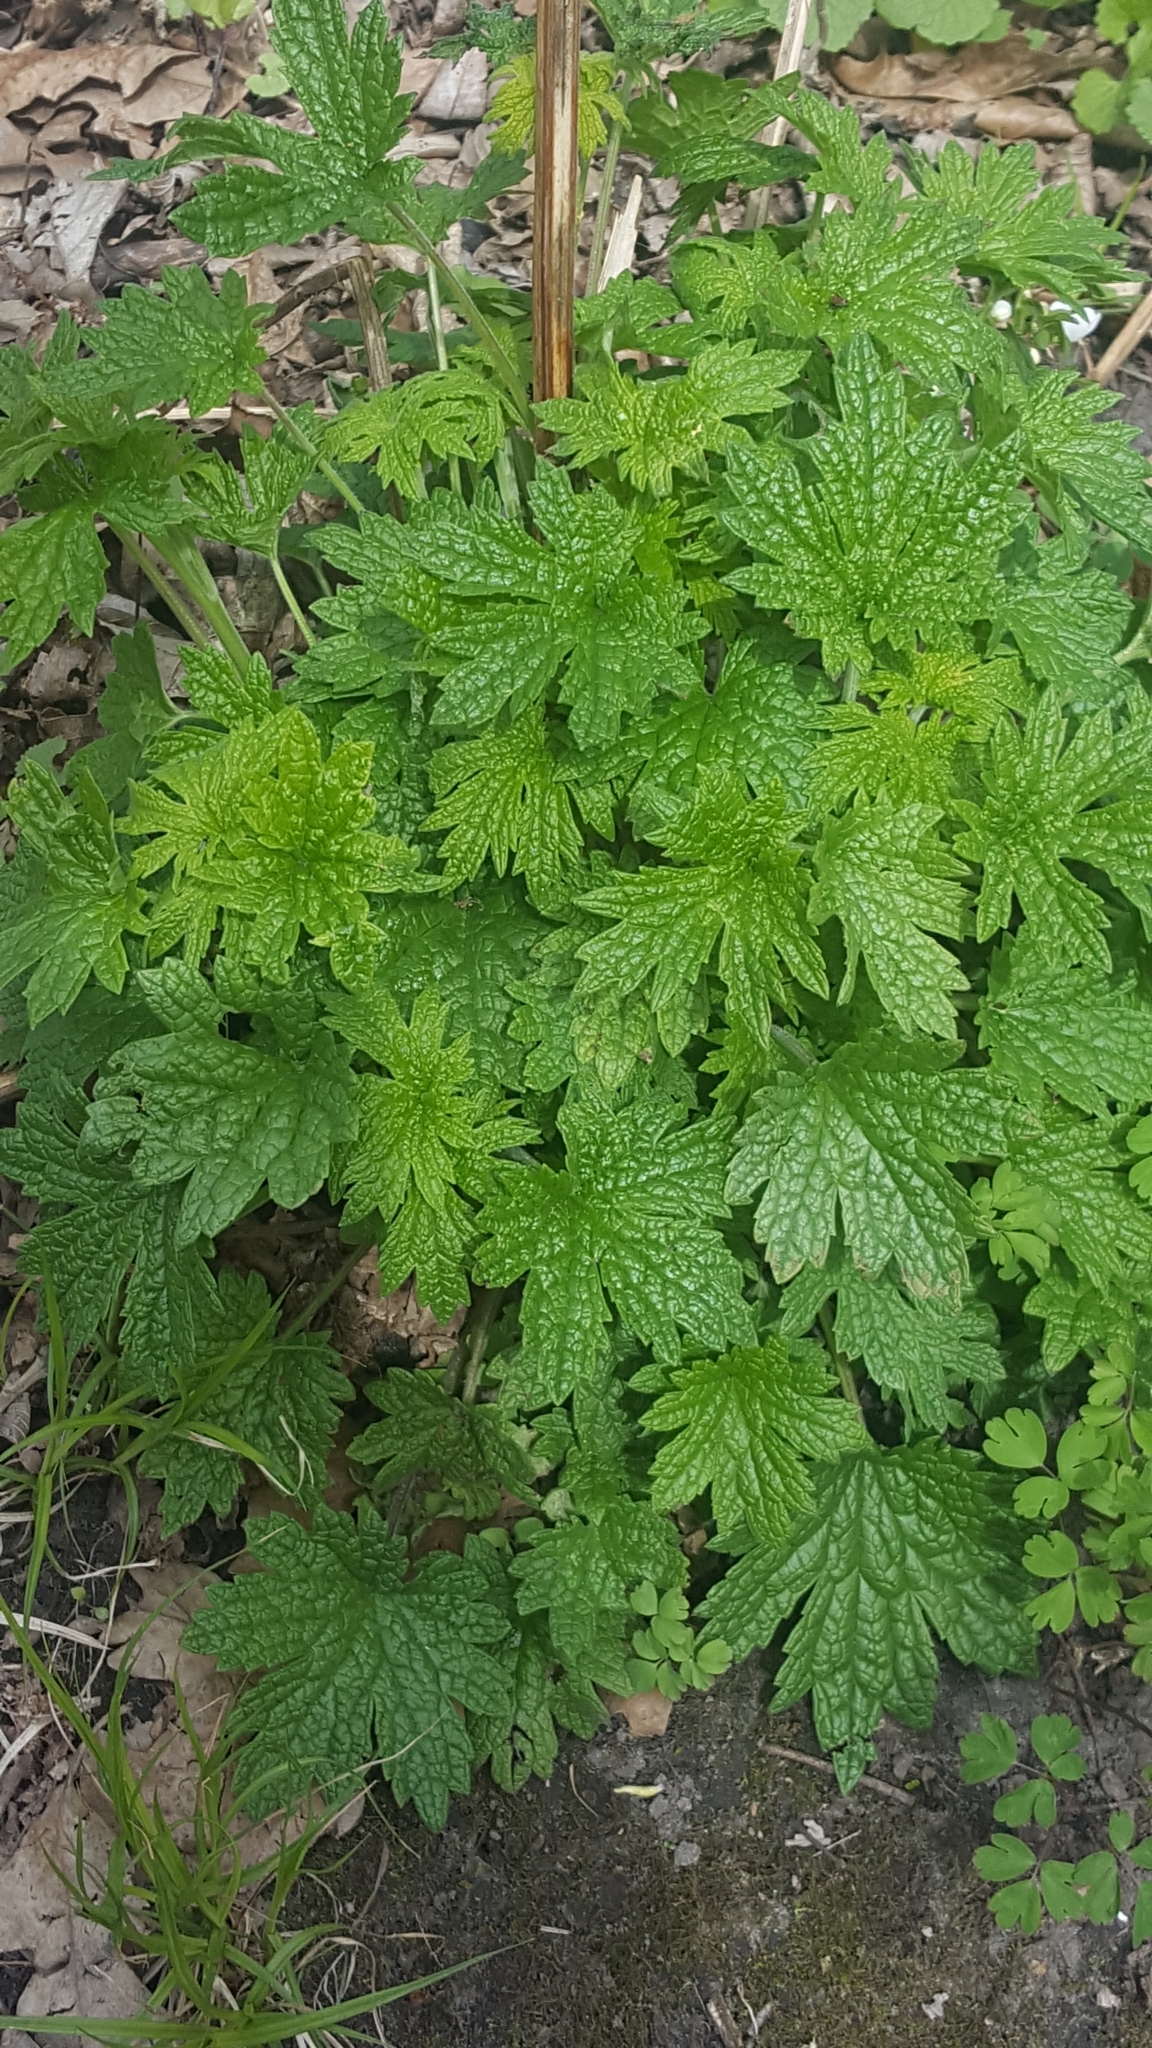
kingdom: Plantae
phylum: Tracheophyta
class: Magnoliopsida
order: Lamiales
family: Lamiaceae
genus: Leonurus
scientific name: Leonurus cardiaca
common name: Motherwort
